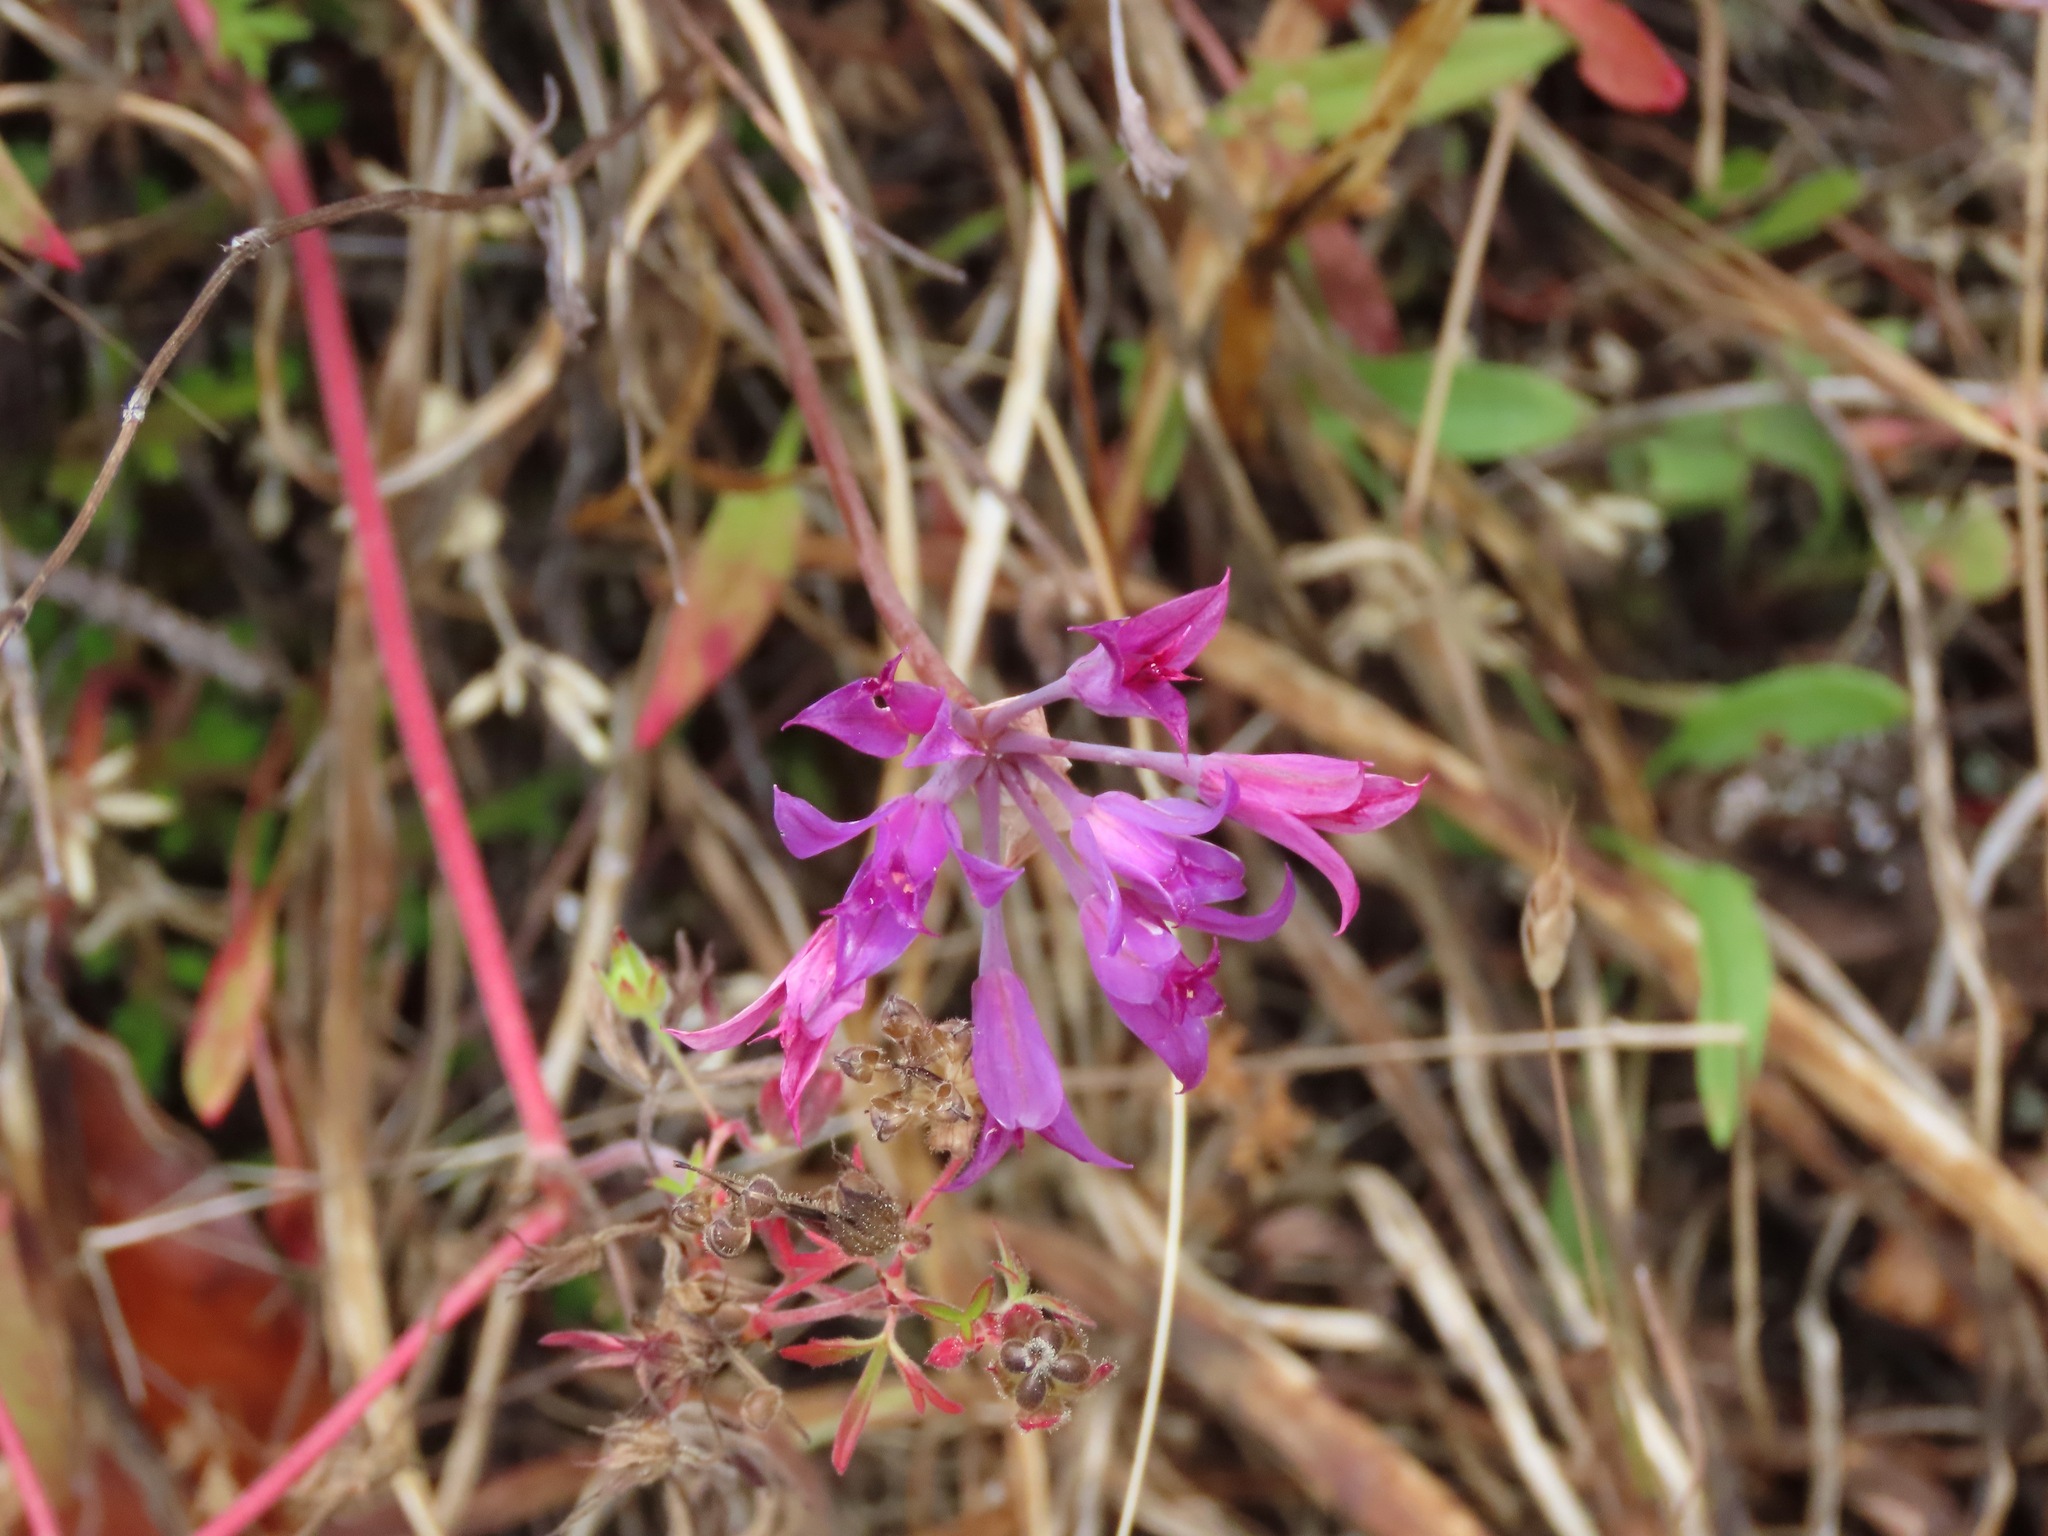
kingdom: Plantae
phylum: Tracheophyta
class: Liliopsida
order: Asparagales
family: Amaryllidaceae
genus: Allium
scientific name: Allium acuminatum
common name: Hooker's onion
